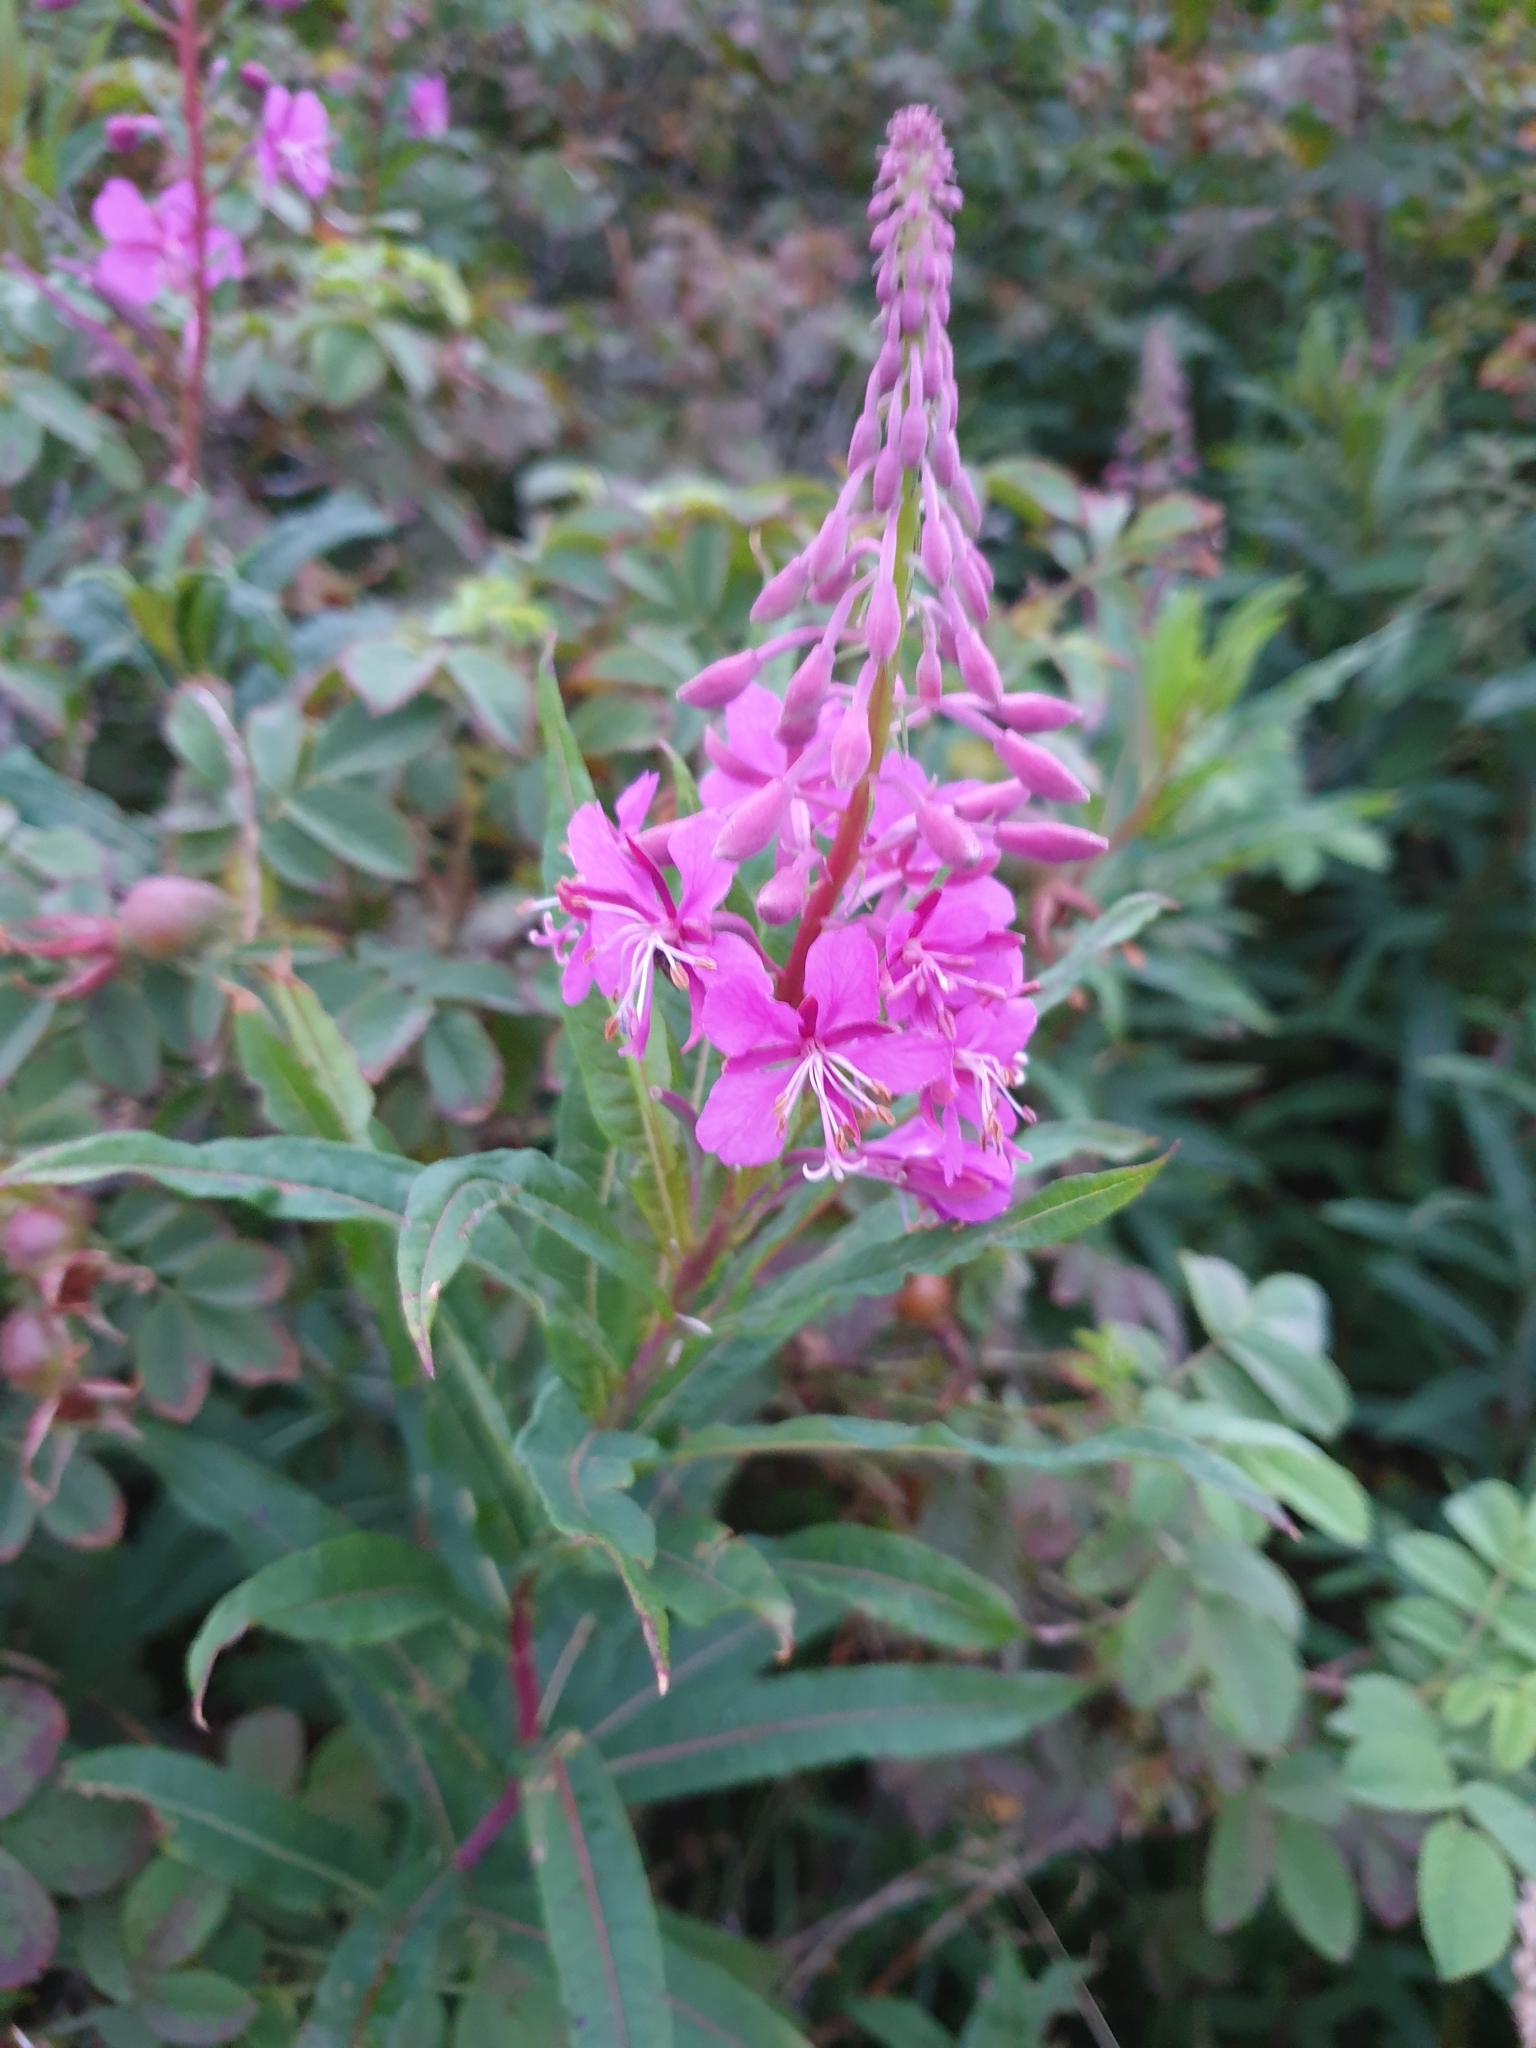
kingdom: Plantae
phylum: Tracheophyta
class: Magnoliopsida
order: Myrtales
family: Onagraceae
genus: Chamaenerion
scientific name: Chamaenerion angustifolium
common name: Fireweed
